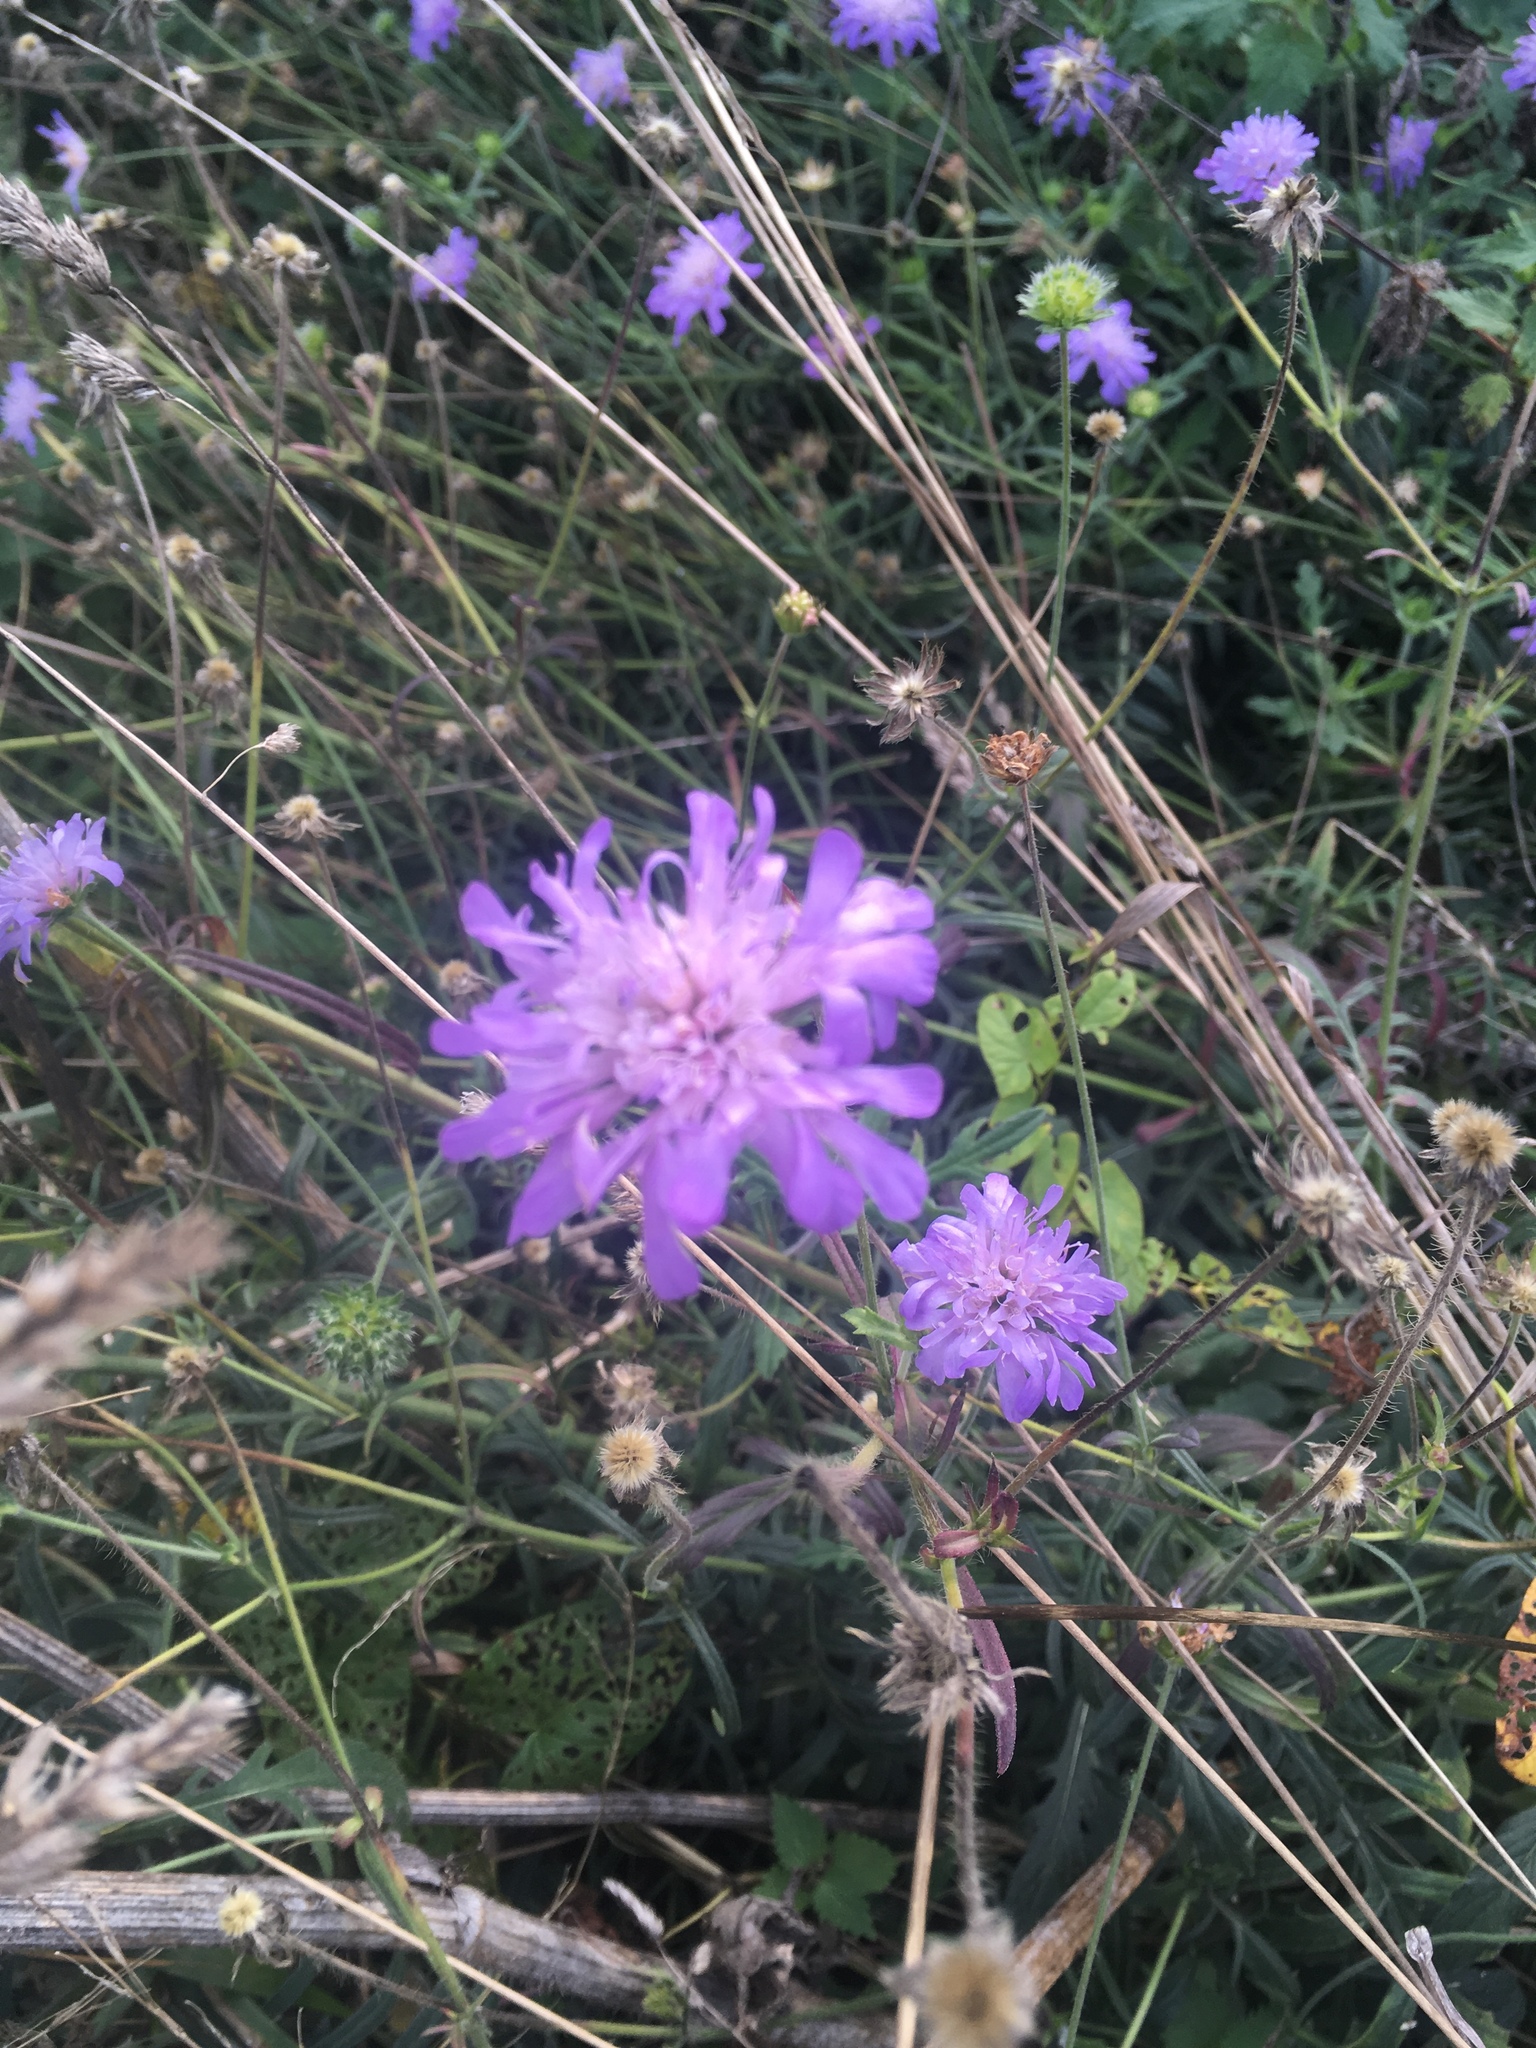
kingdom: Plantae
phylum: Tracheophyta
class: Magnoliopsida
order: Dipsacales
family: Caprifoliaceae
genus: Knautia
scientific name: Knautia arvensis
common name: Field scabiosa
